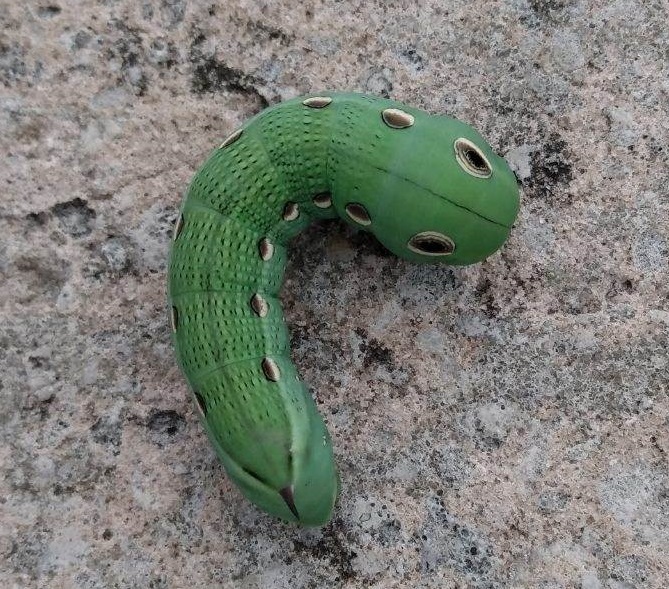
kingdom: Animalia
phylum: Arthropoda
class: Insecta
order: Lepidoptera
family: Sphingidae
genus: Xylophanes
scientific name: Xylophanes tersa
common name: Tersa sphinx
